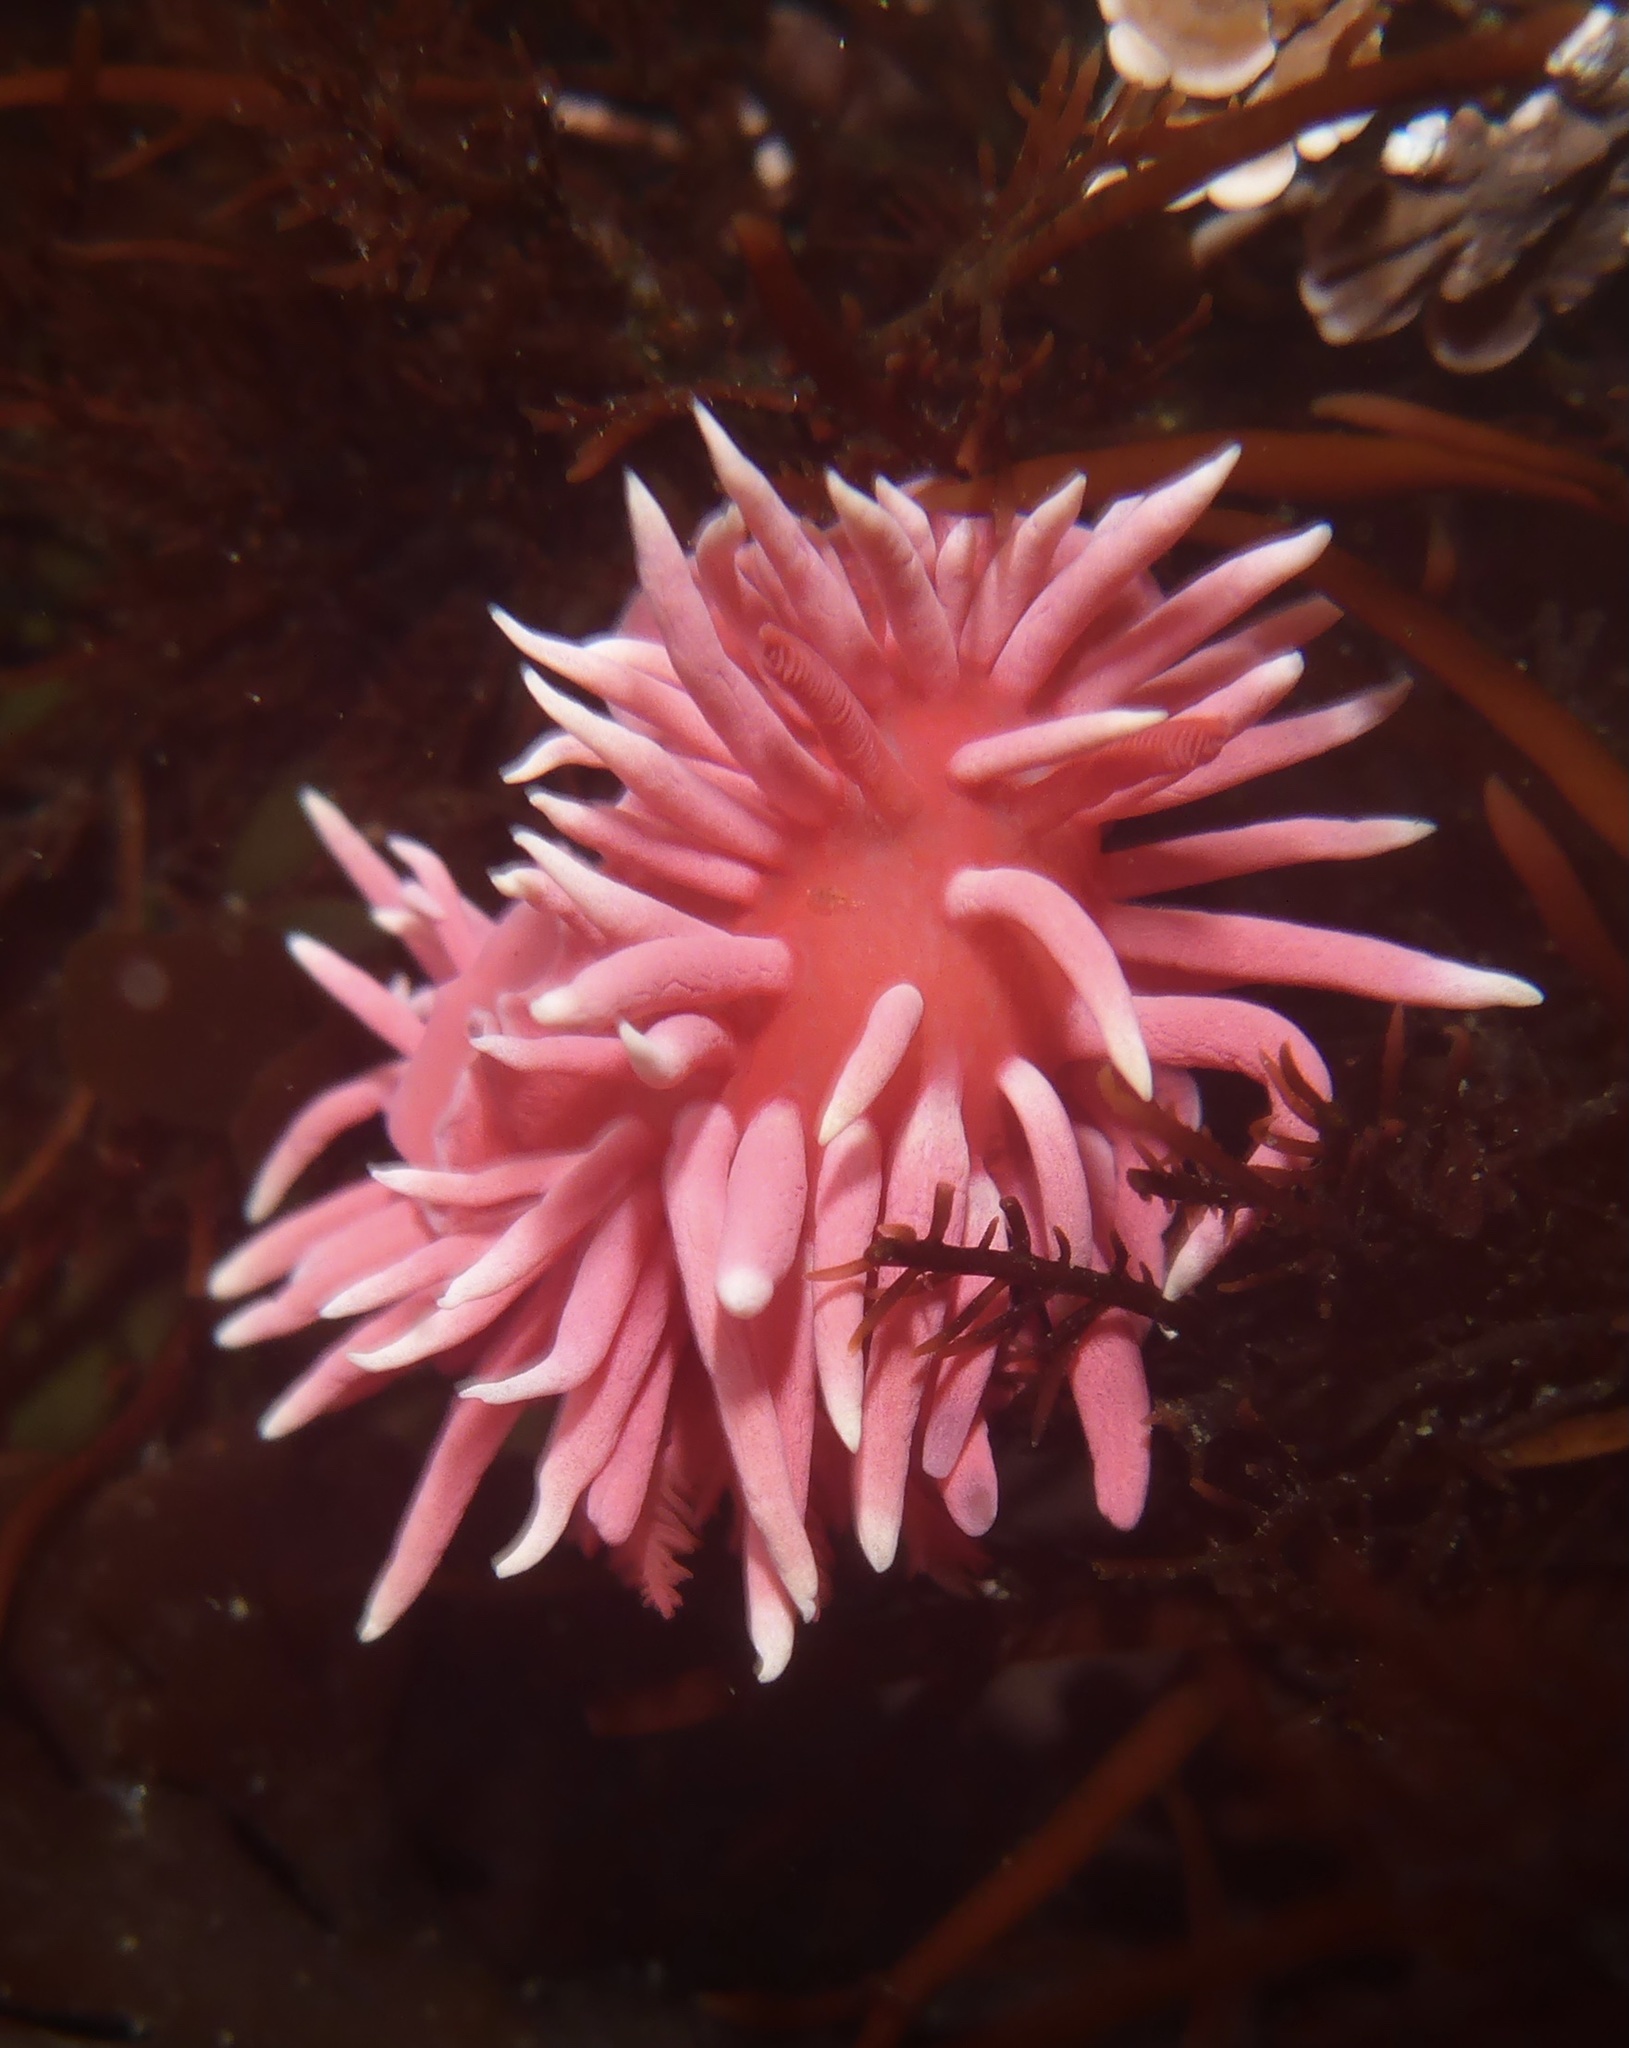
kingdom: Animalia
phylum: Mollusca
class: Gastropoda
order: Nudibranchia
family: Goniodorididae
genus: Okenia
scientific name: Okenia
